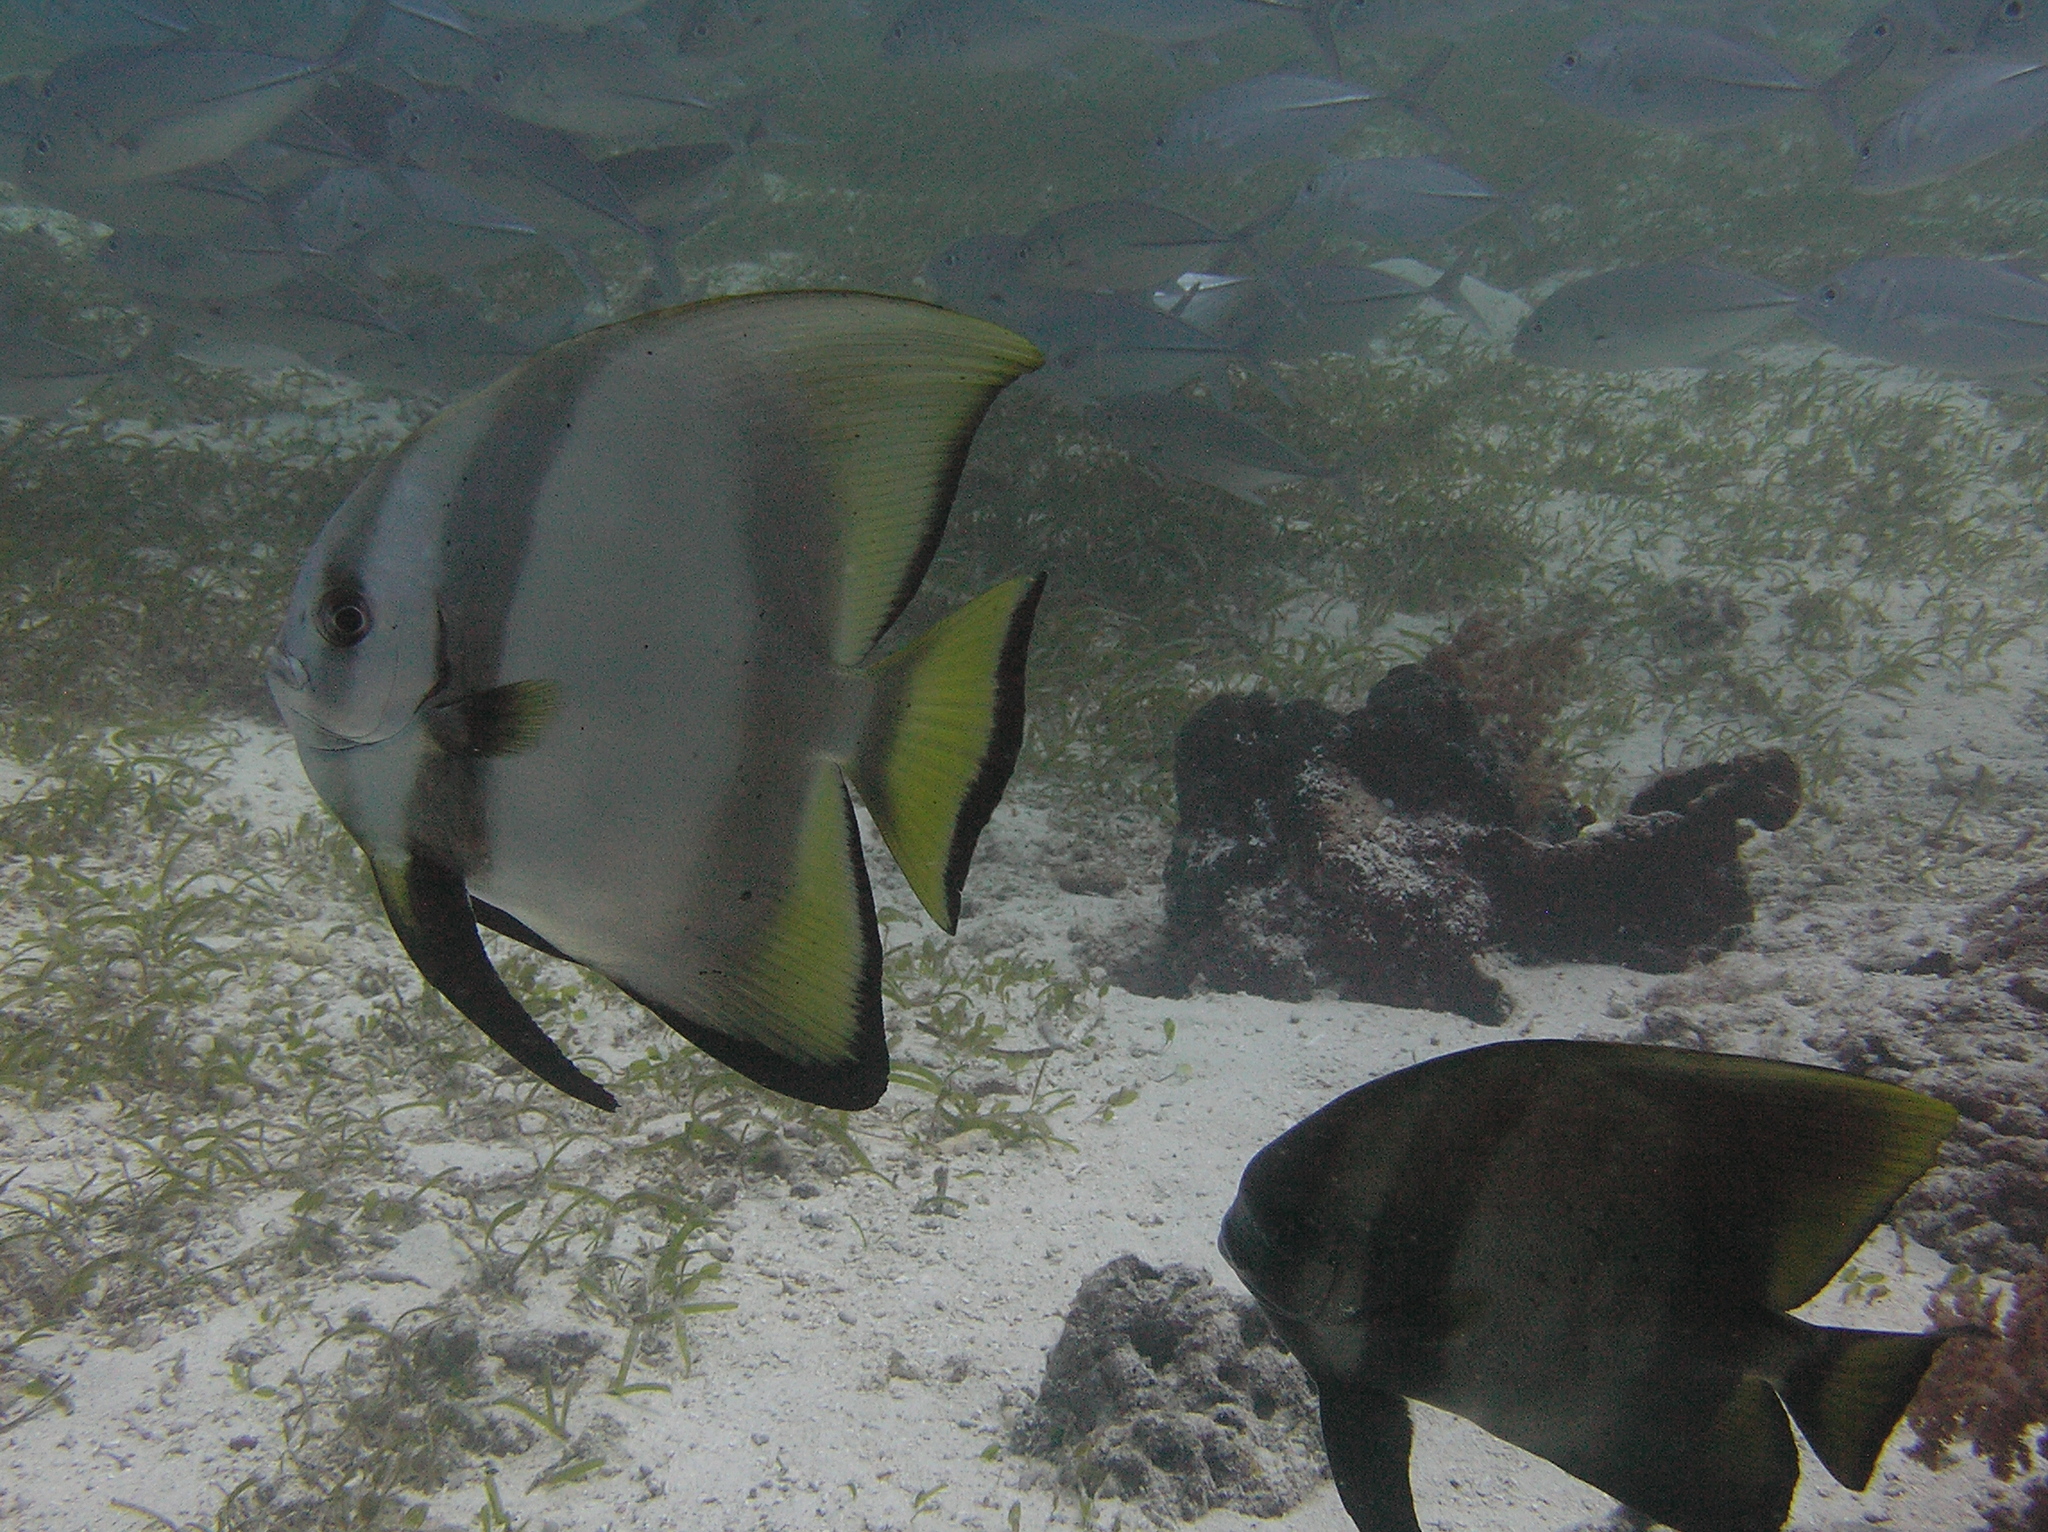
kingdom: Animalia
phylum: Chordata
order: Perciformes
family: Ephippidae
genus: Platax
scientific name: Platax orbicularis
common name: Batfish
